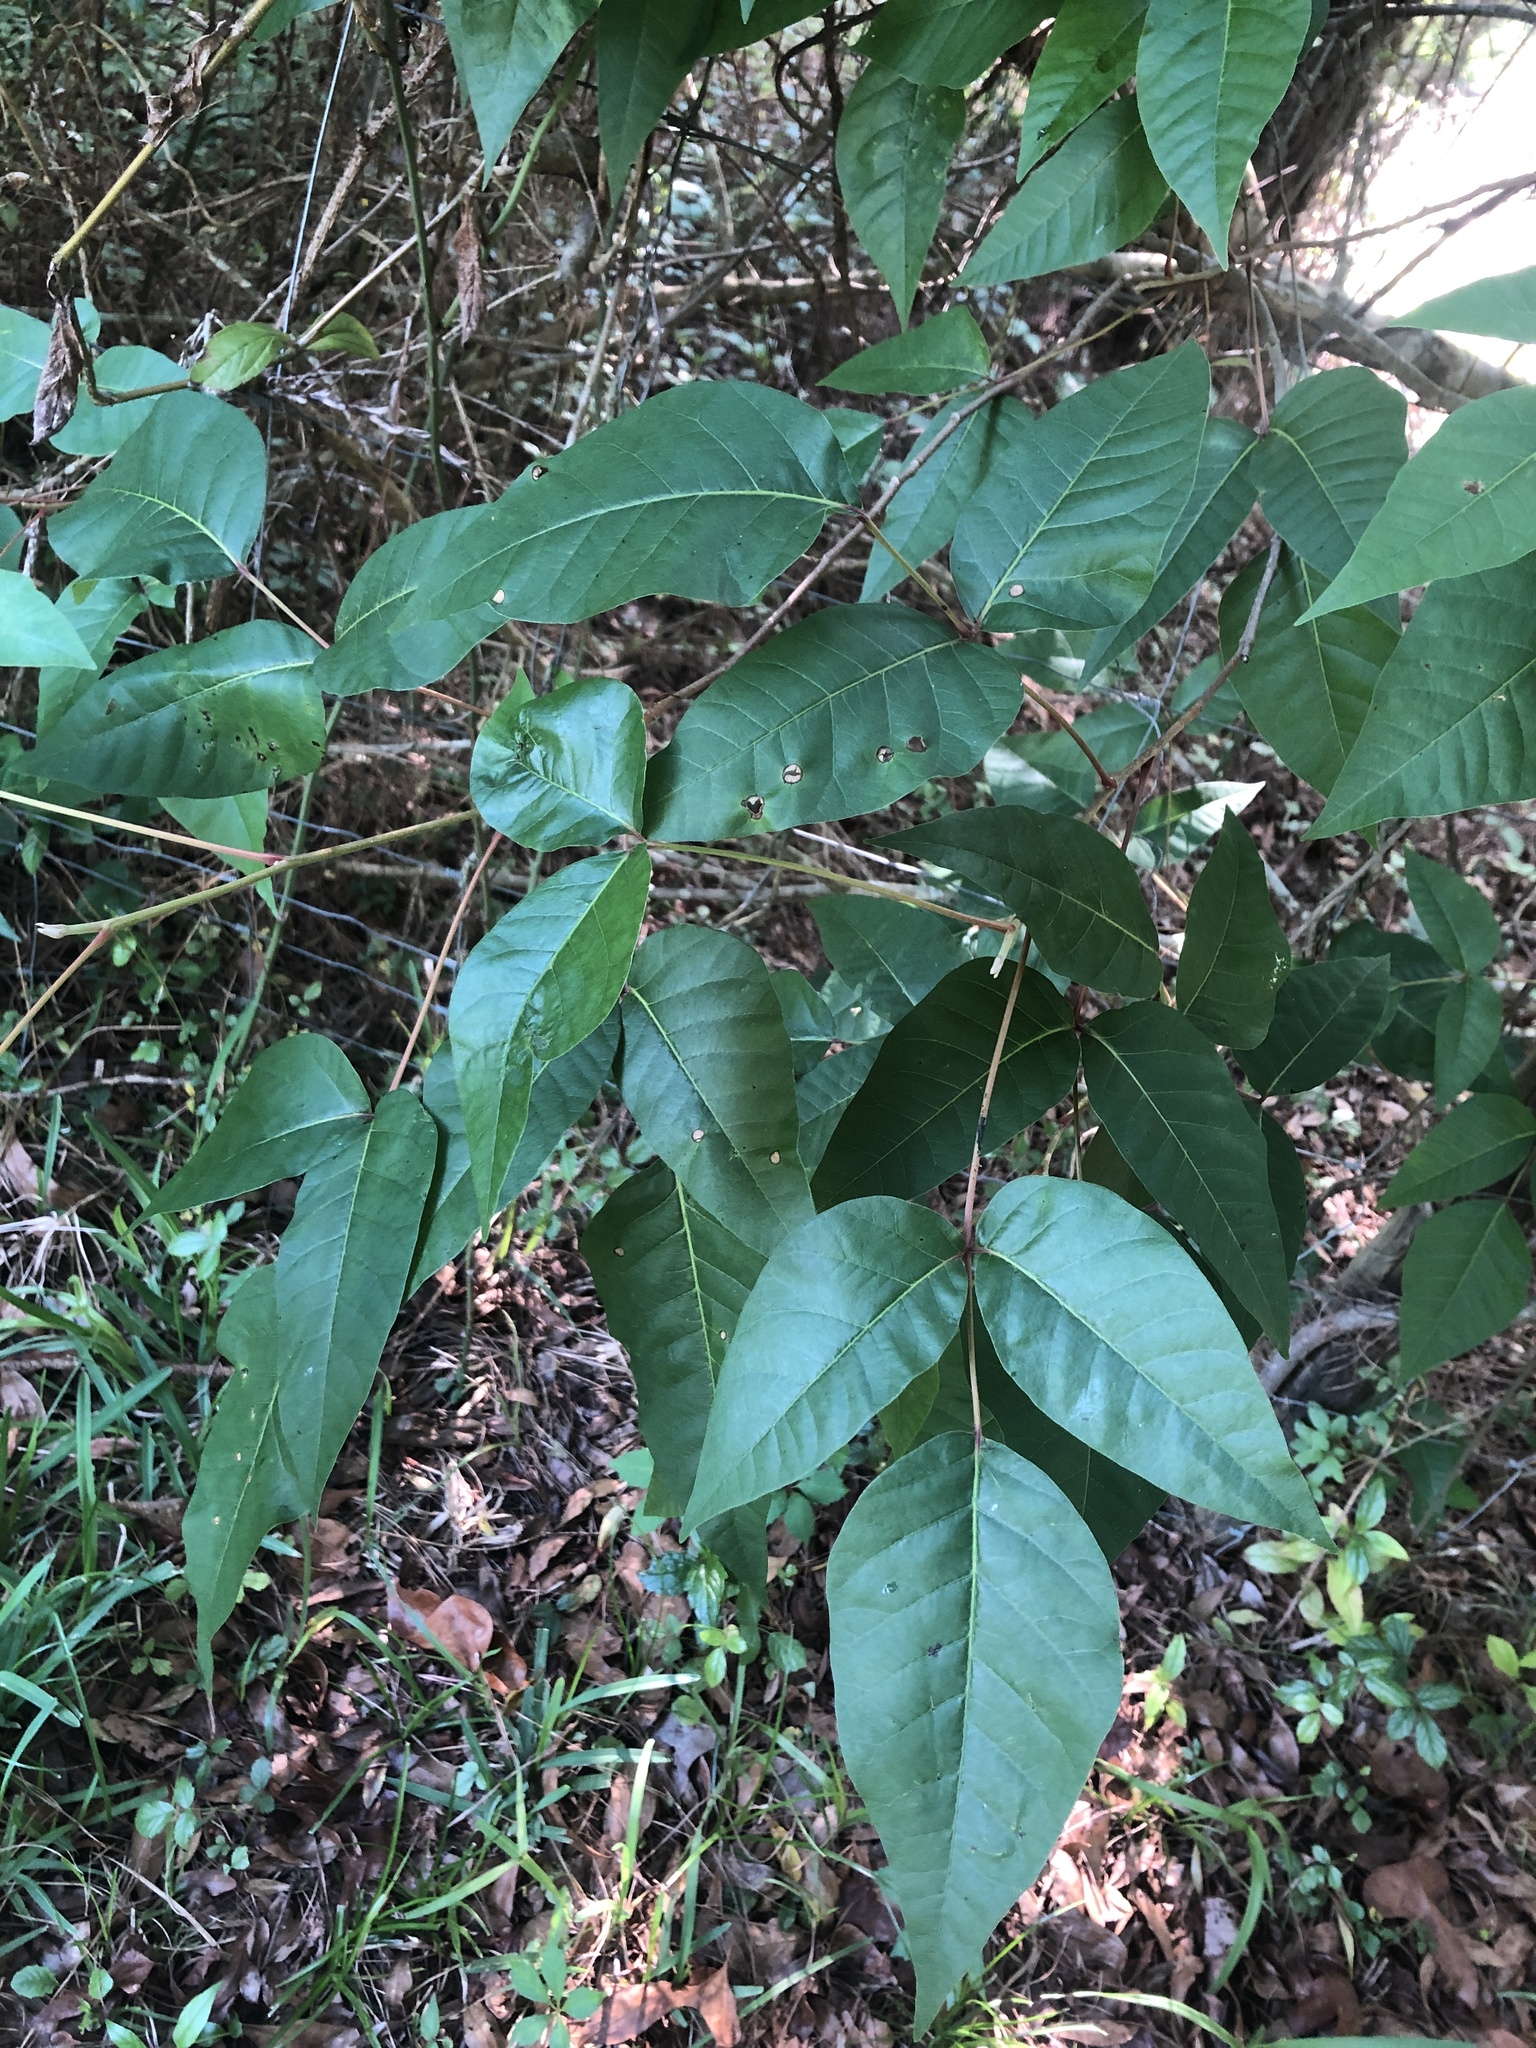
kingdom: Plantae
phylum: Tracheophyta
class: Magnoliopsida
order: Sapindales
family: Anacardiaceae
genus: Toxicodendron
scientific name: Toxicodendron radicans
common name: Poison ivy
